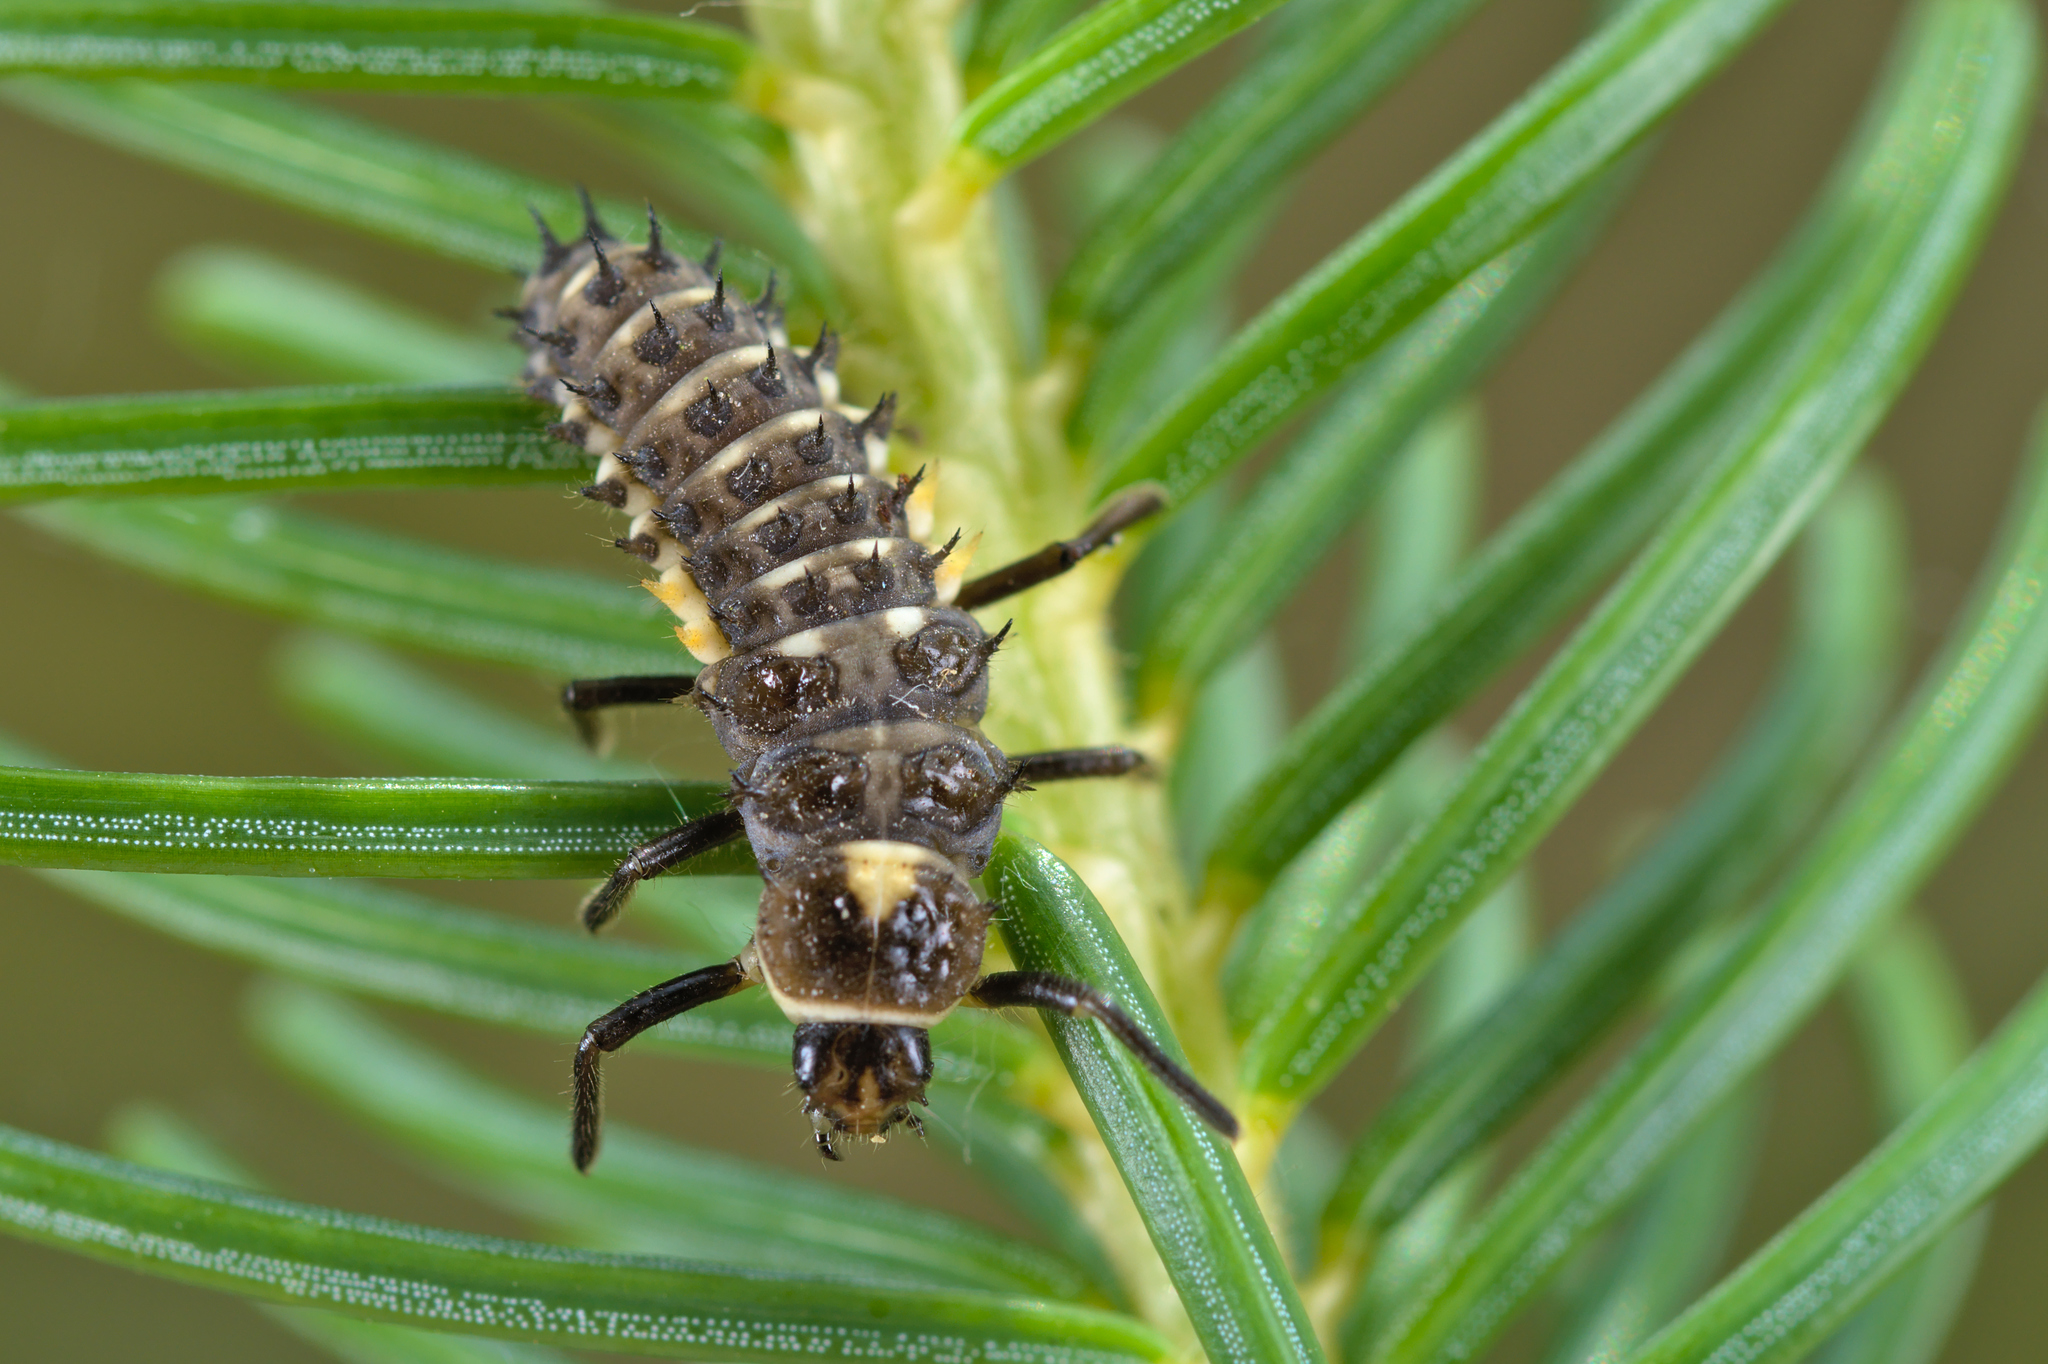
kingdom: Animalia
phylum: Arthropoda
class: Insecta
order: Coleoptera
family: Coccinellidae
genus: Anatis
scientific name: Anatis ocellata
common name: Eyed ladybird
